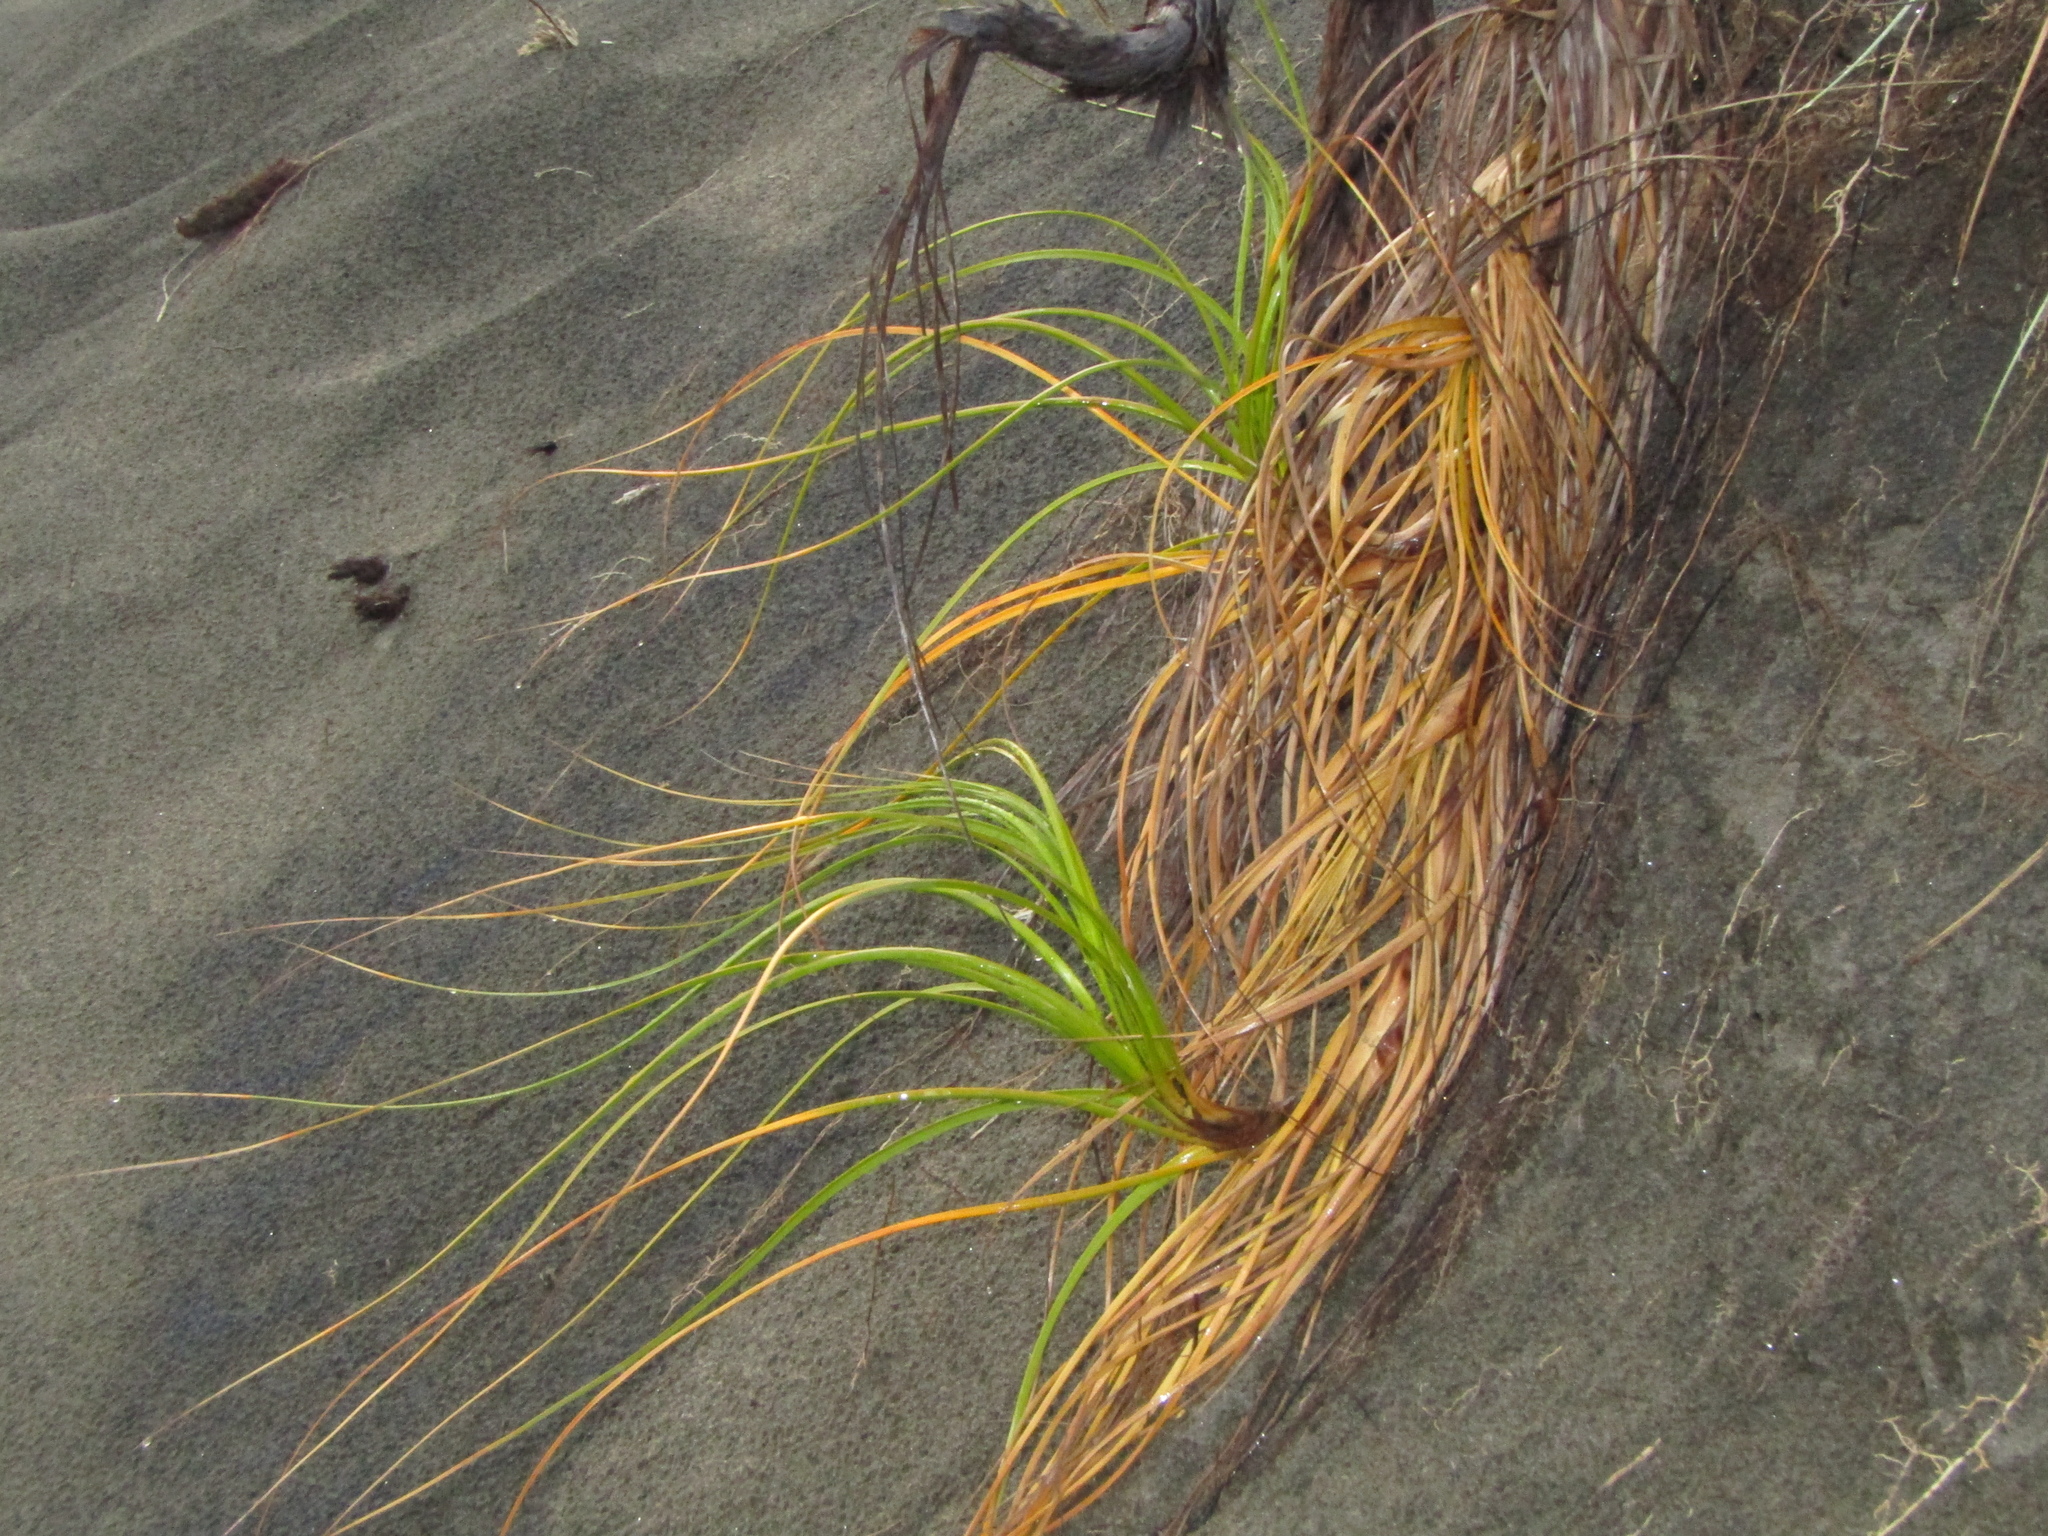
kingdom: Plantae
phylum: Tracheophyta
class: Liliopsida
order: Poales
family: Cyperaceae
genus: Ficinia
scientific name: Ficinia spiralis
